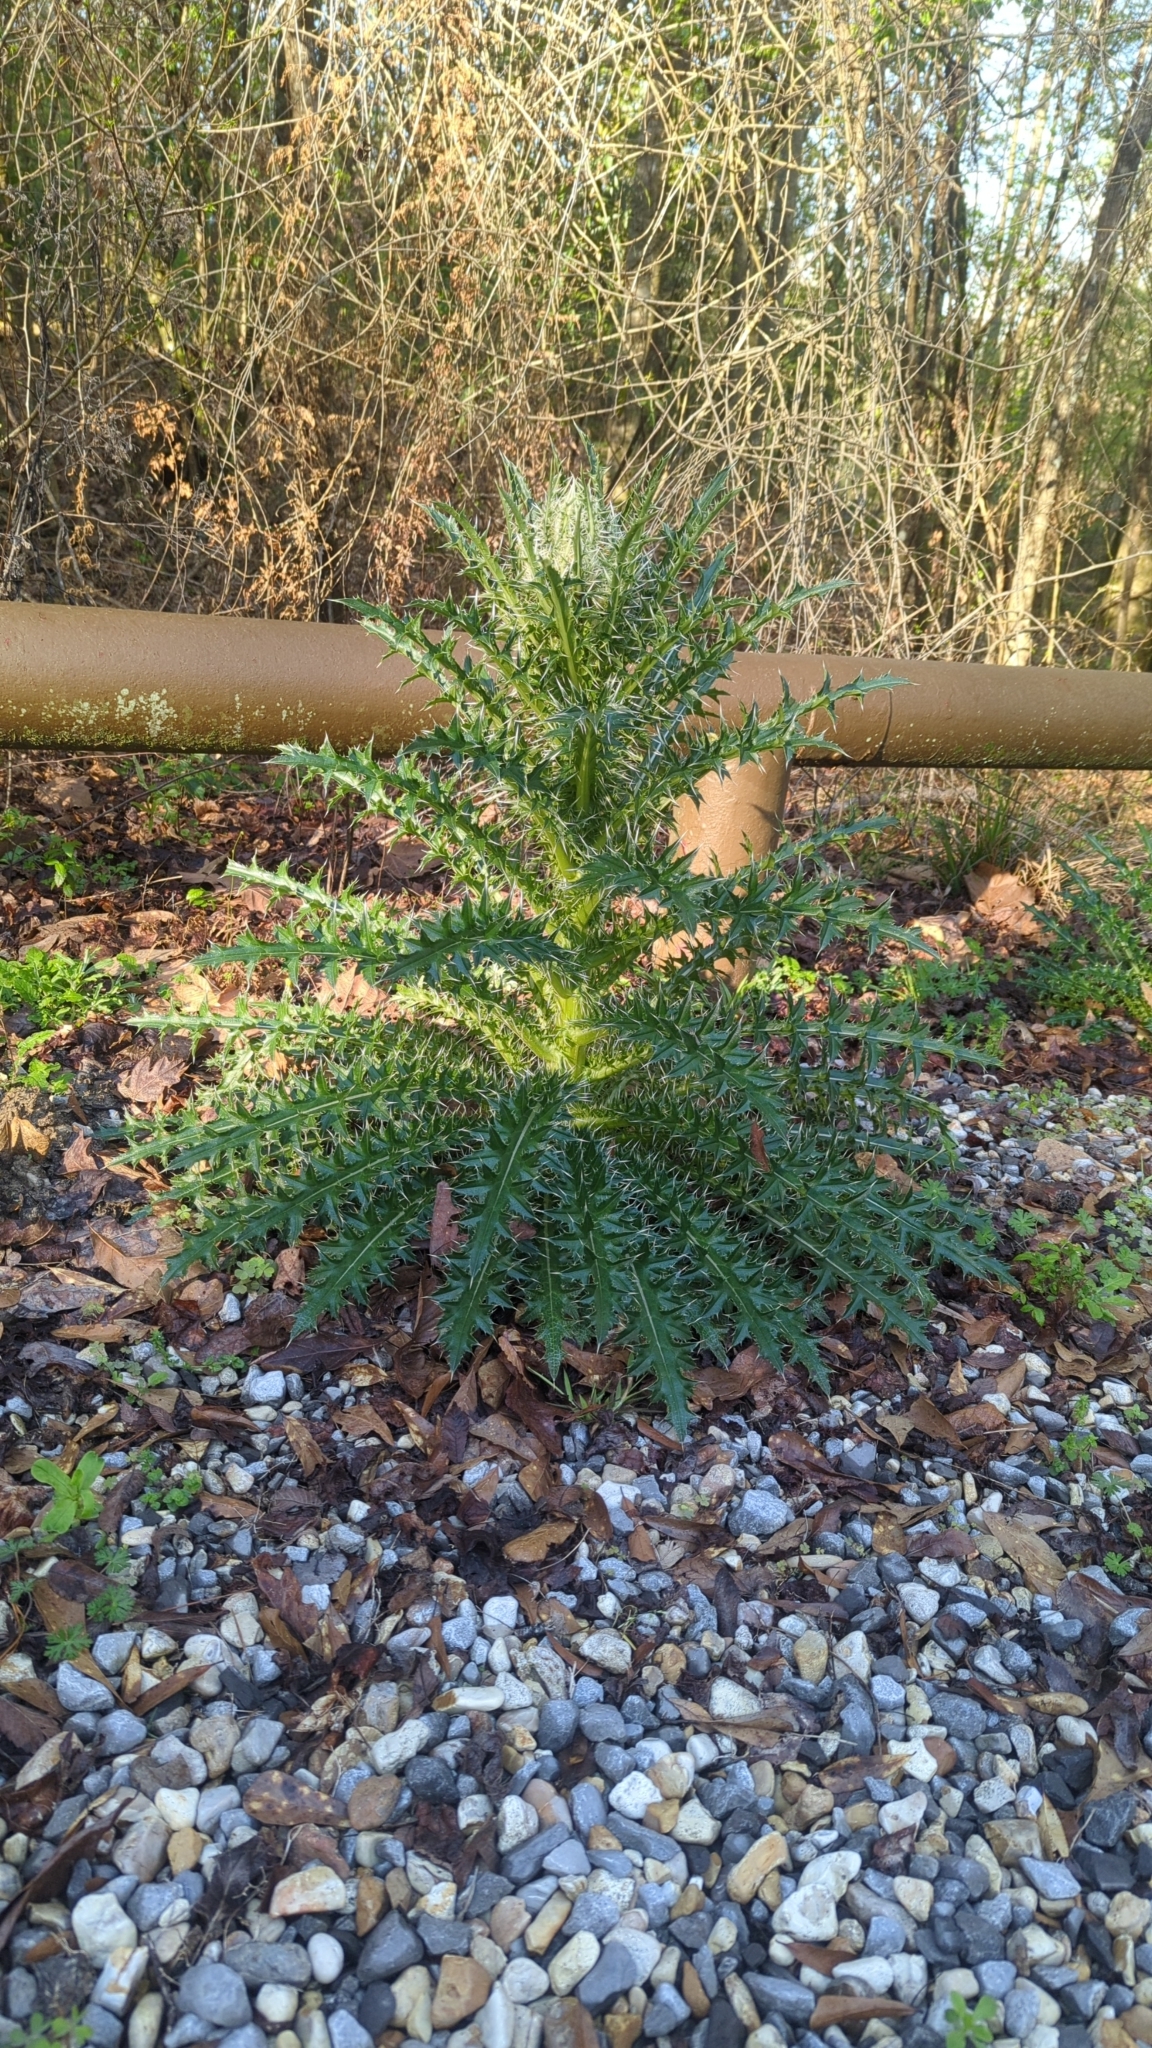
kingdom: Plantae
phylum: Tracheophyta
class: Magnoliopsida
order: Asterales
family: Asteraceae
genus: Cirsium
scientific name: Cirsium horridulum
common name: Bristly thistle
